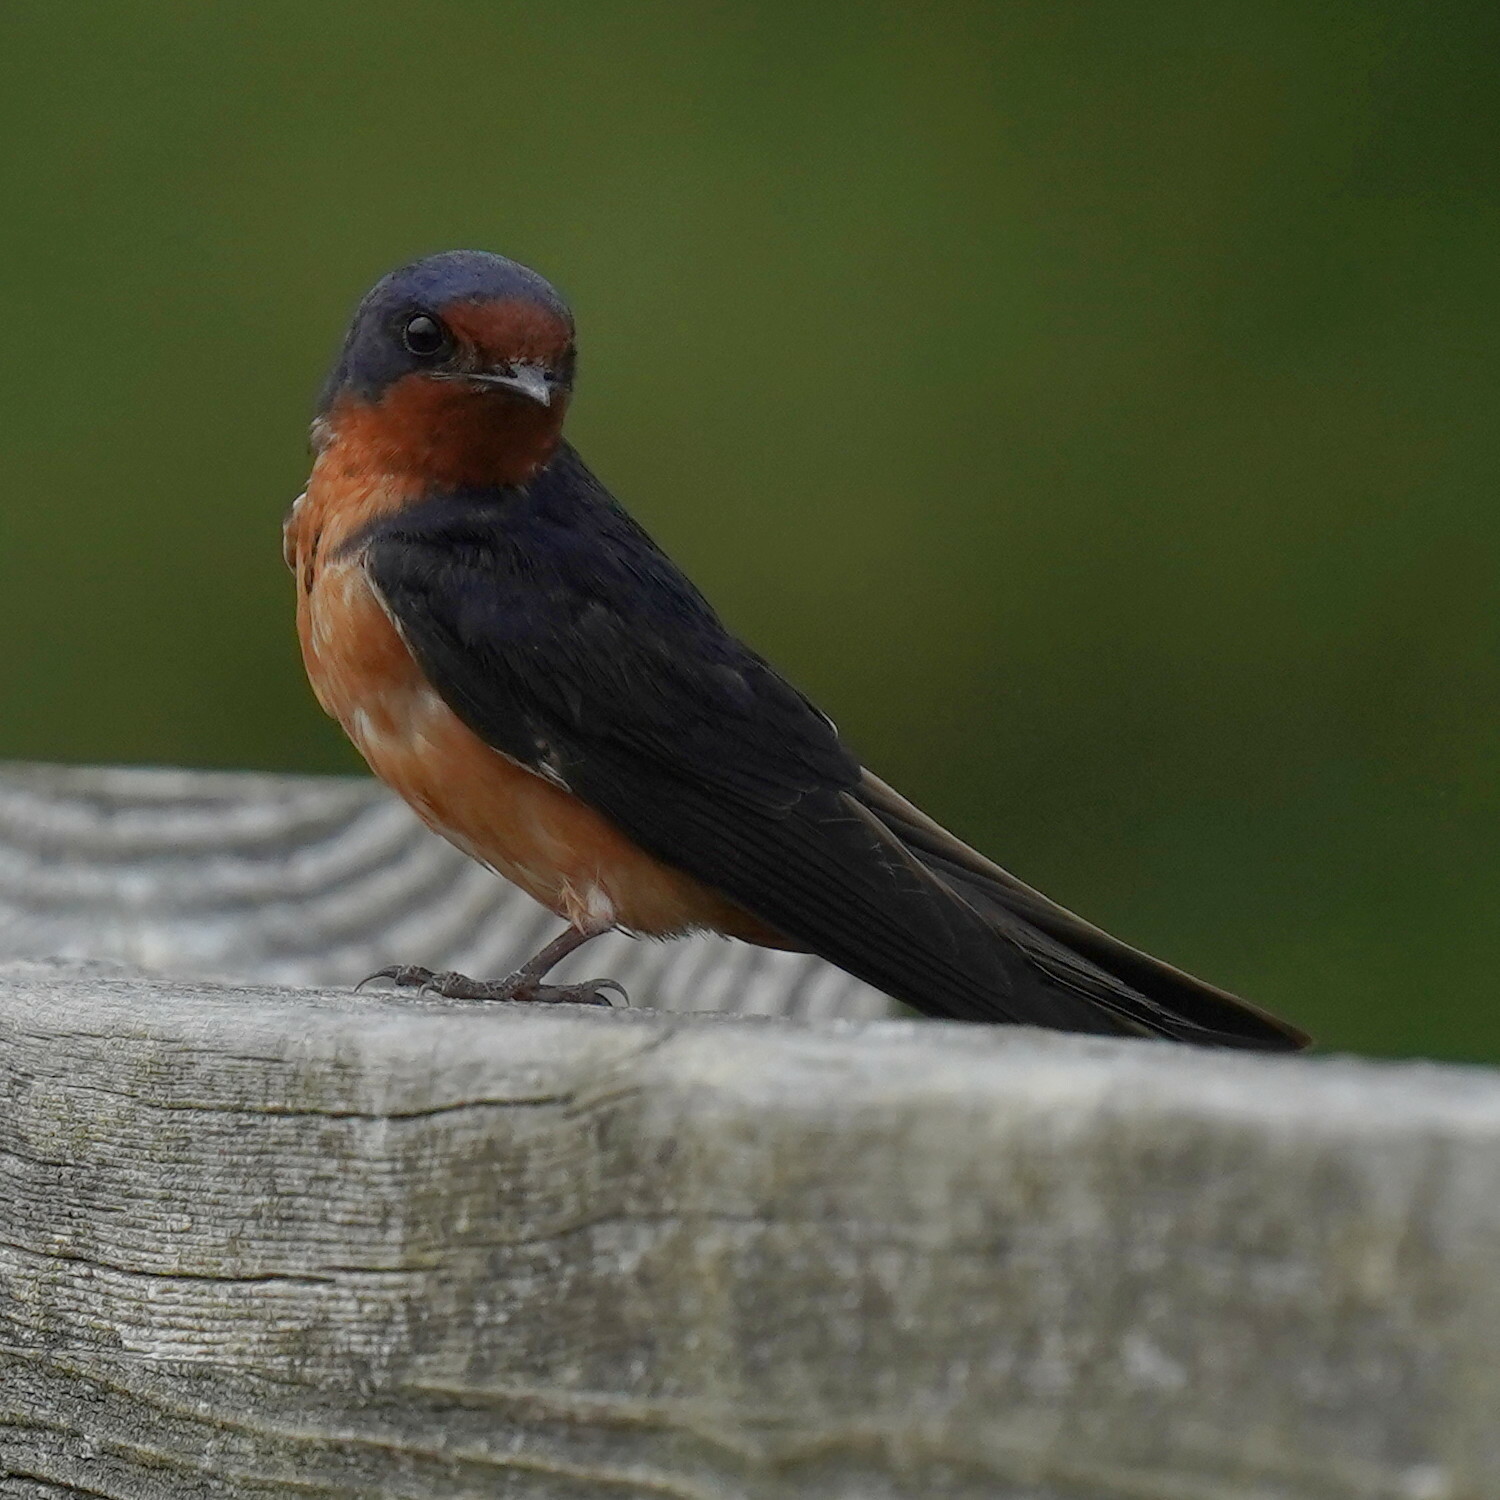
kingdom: Animalia
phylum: Chordata
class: Aves
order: Passeriformes
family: Hirundinidae
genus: Hirundo
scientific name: Hirundo rustica
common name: Barn swallow
